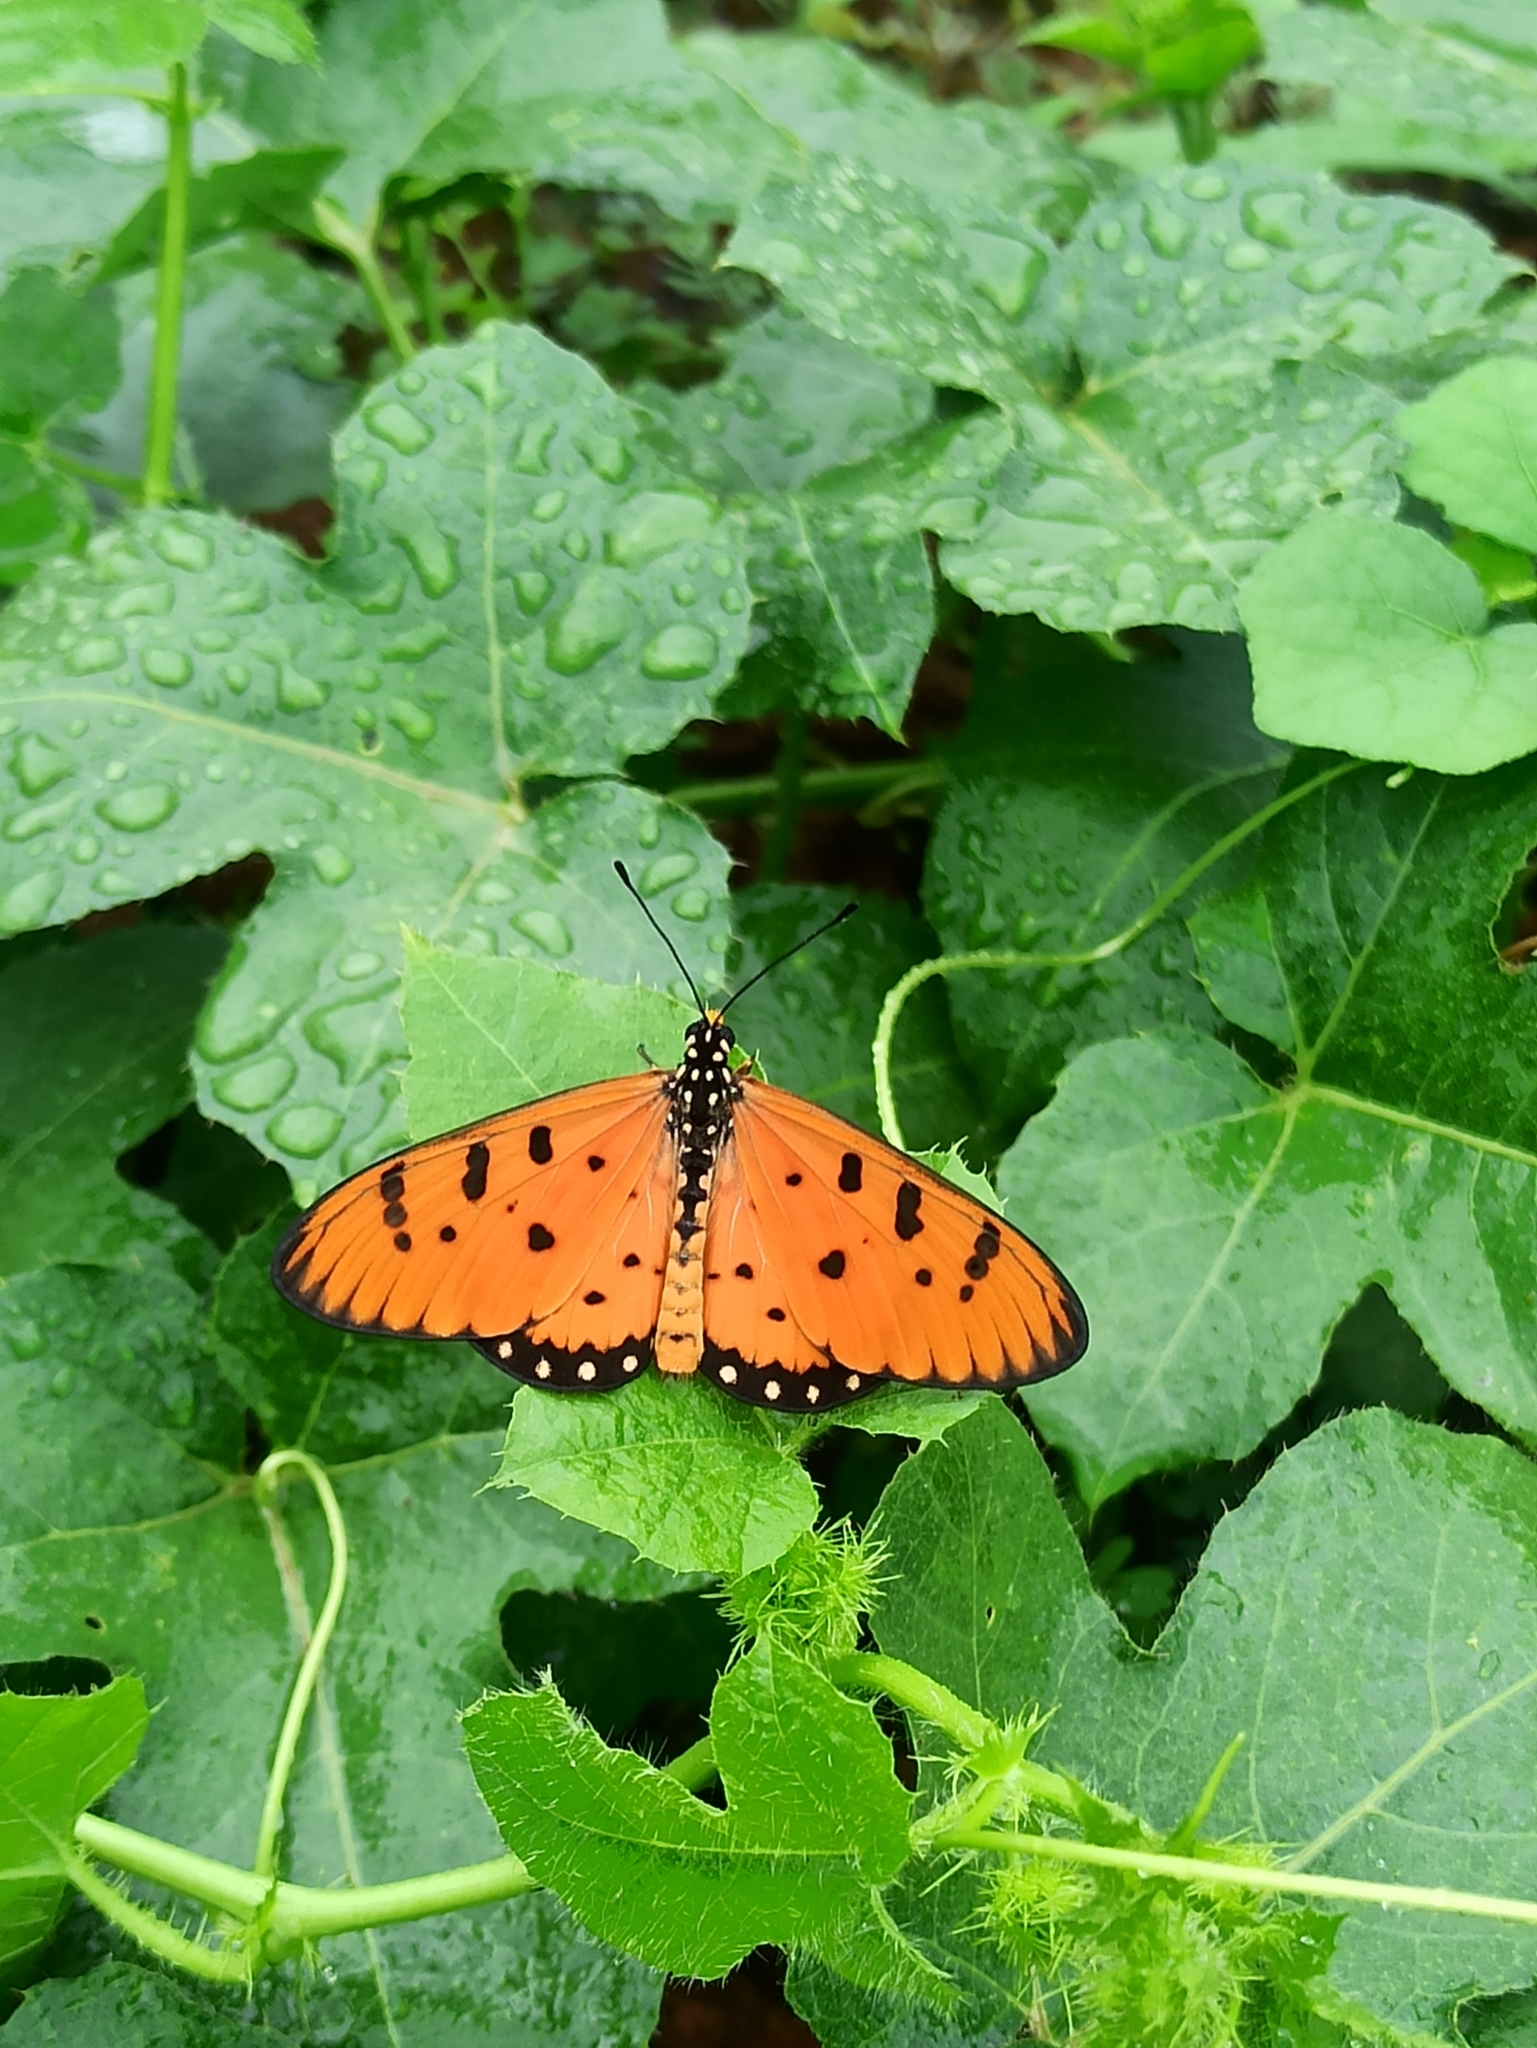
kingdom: Animalia
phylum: Arthropoda
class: Insecta
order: Lepidoptera
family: Nymphalidae
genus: Acraea
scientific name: Acraea terpsicore
